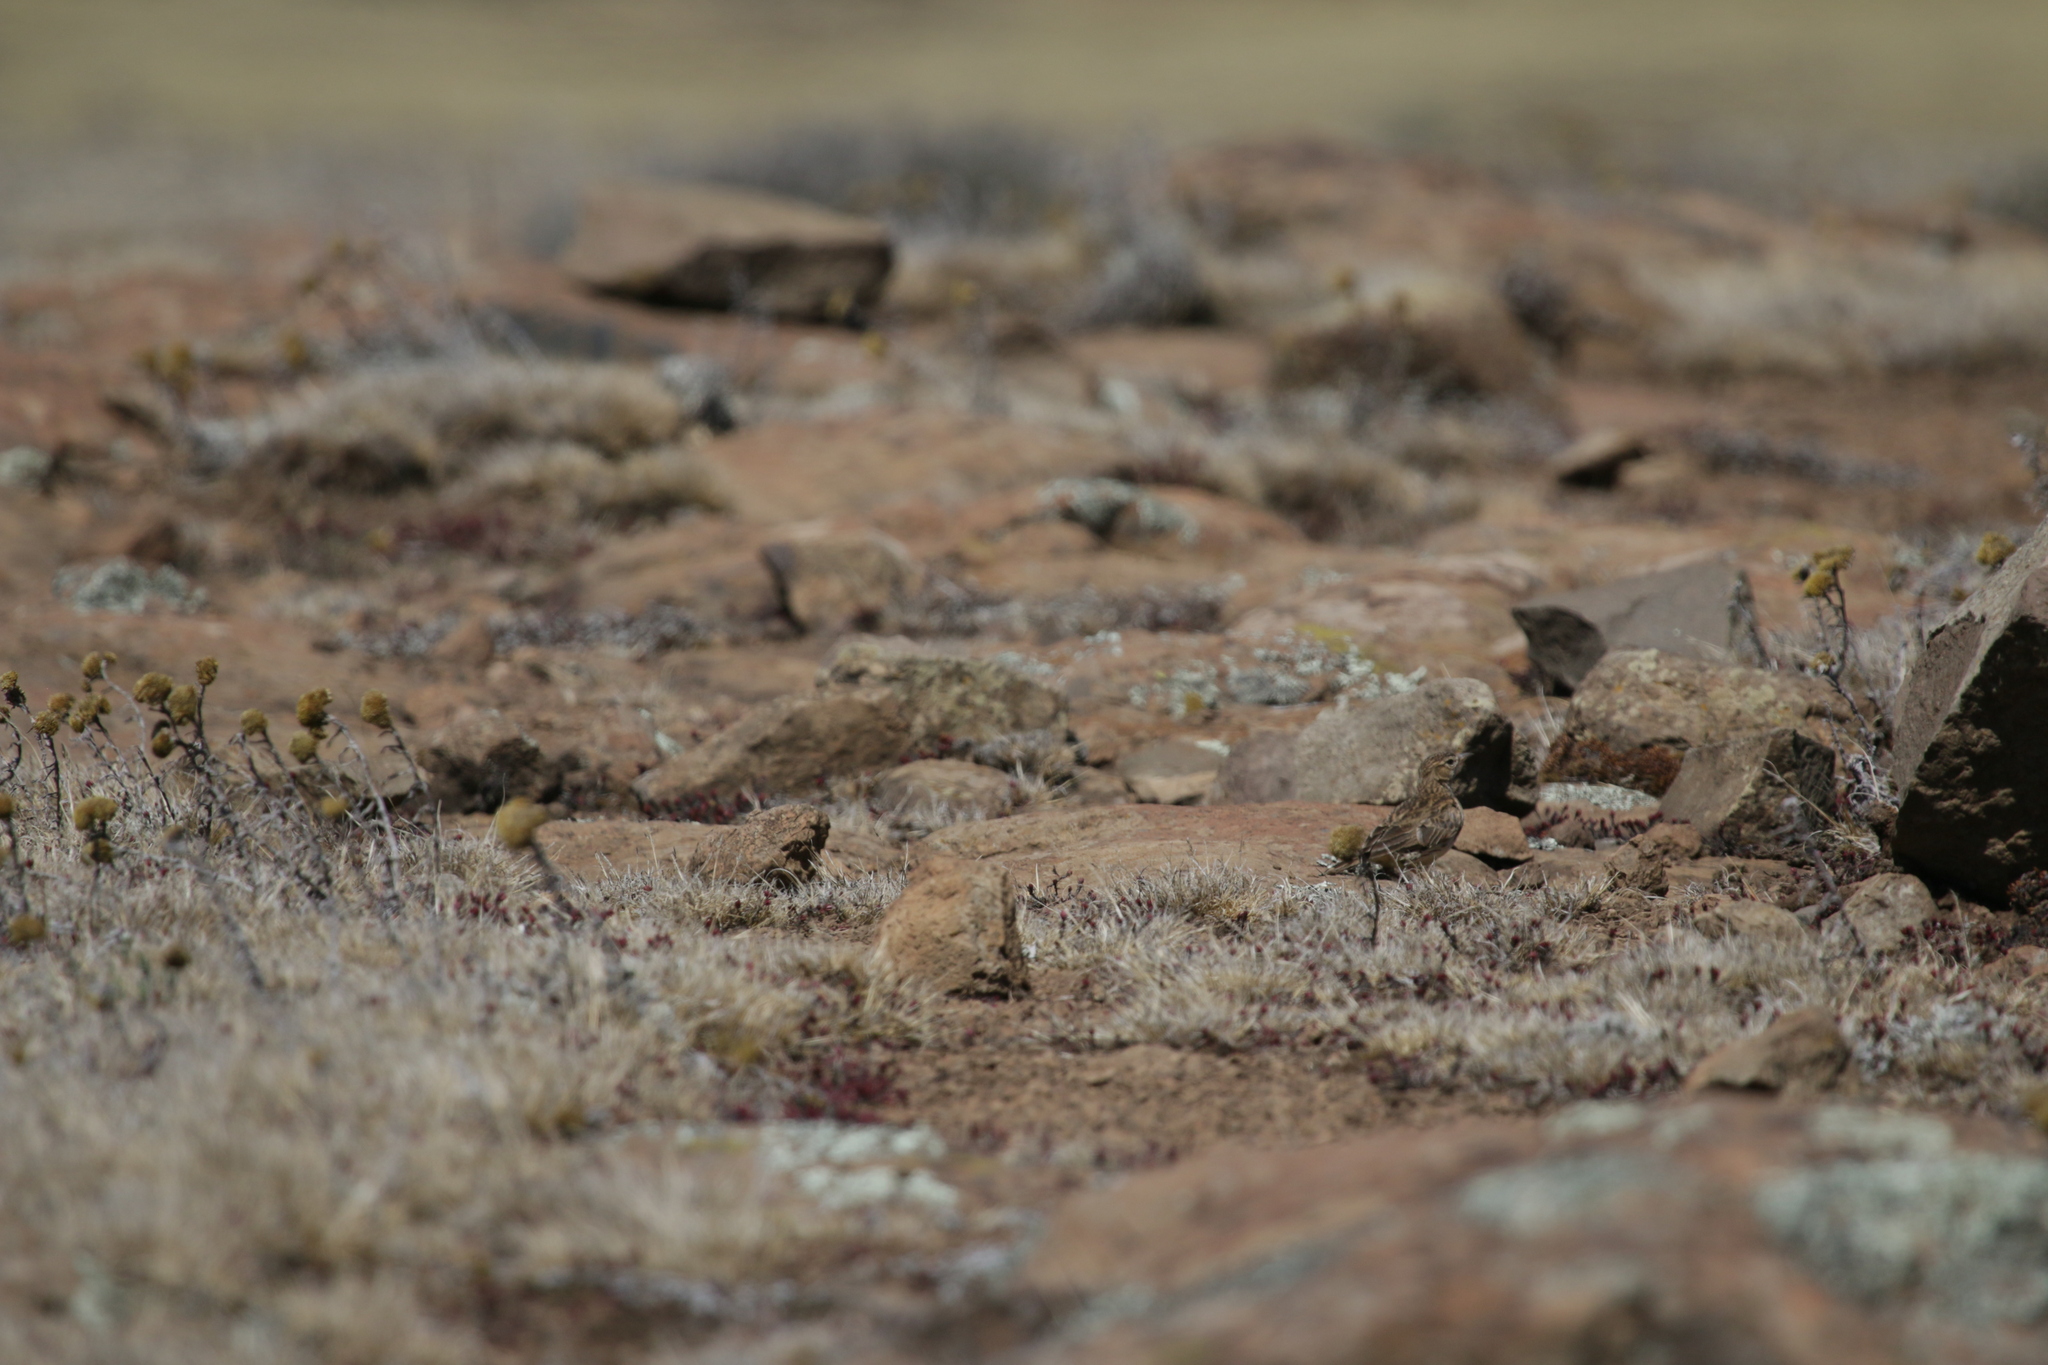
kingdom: Animalia
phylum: Chordata
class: Aves
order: Passeriformes
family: Alaudidae
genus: Galerida
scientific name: Galerida magnirostris
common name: Large-billed lark
